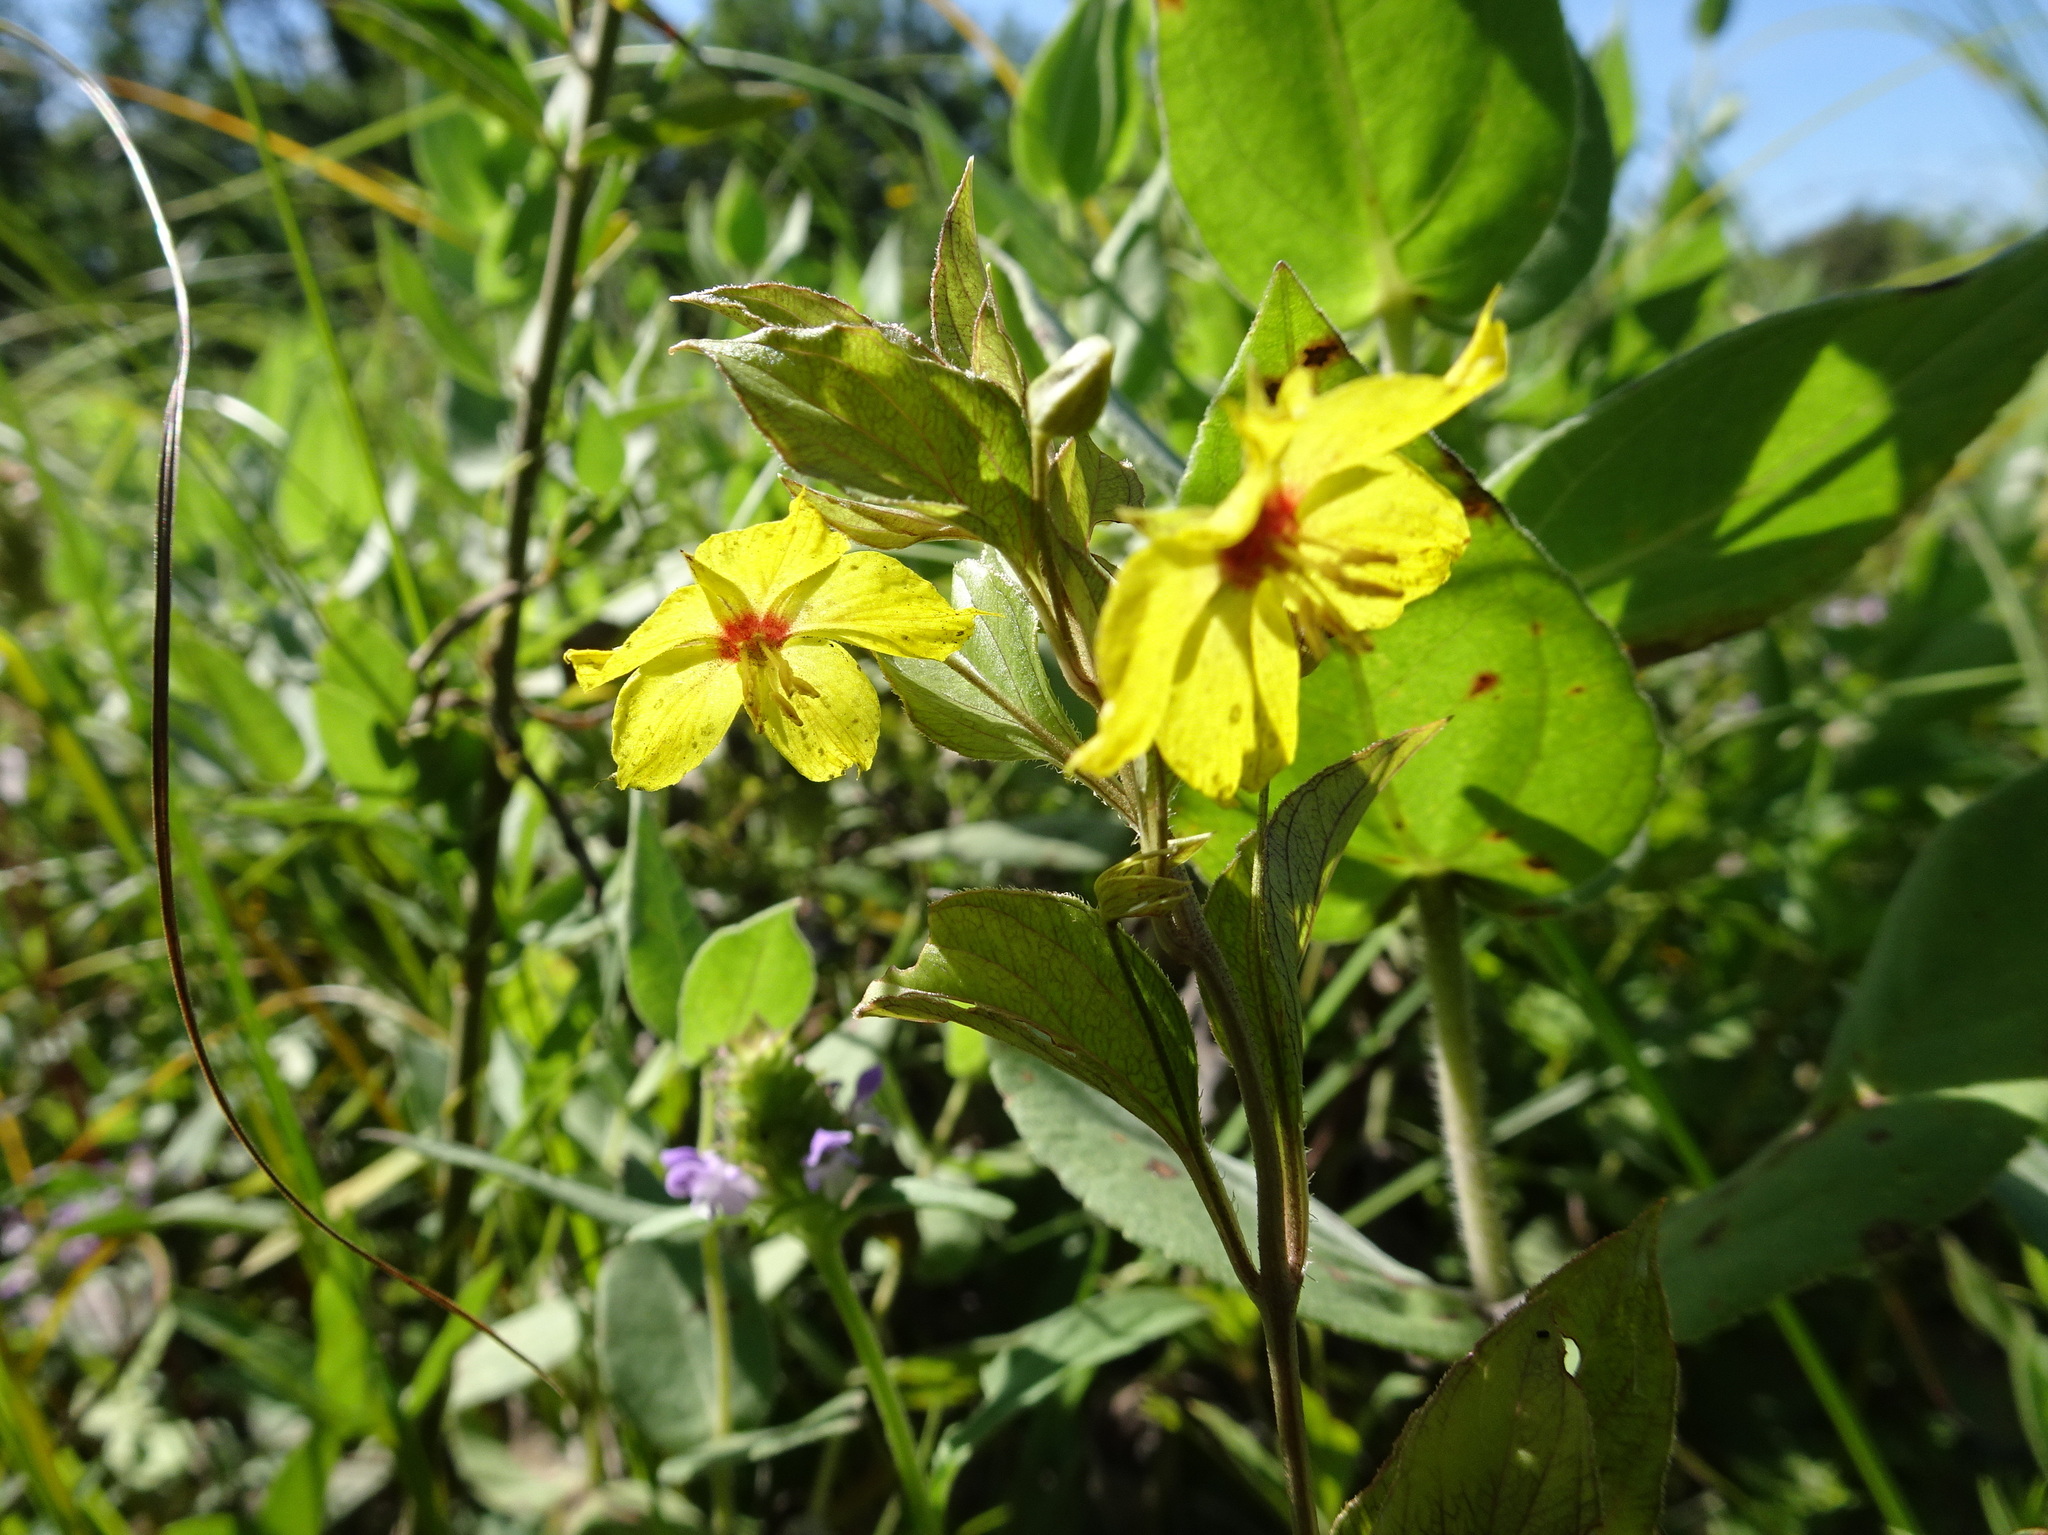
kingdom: Plantae
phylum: Tracheophyta
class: Magnoliopsida
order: Ericales
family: Primulaceae
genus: Lysimachia
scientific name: Lysimachia ciliata
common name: Fringed loosestrife
